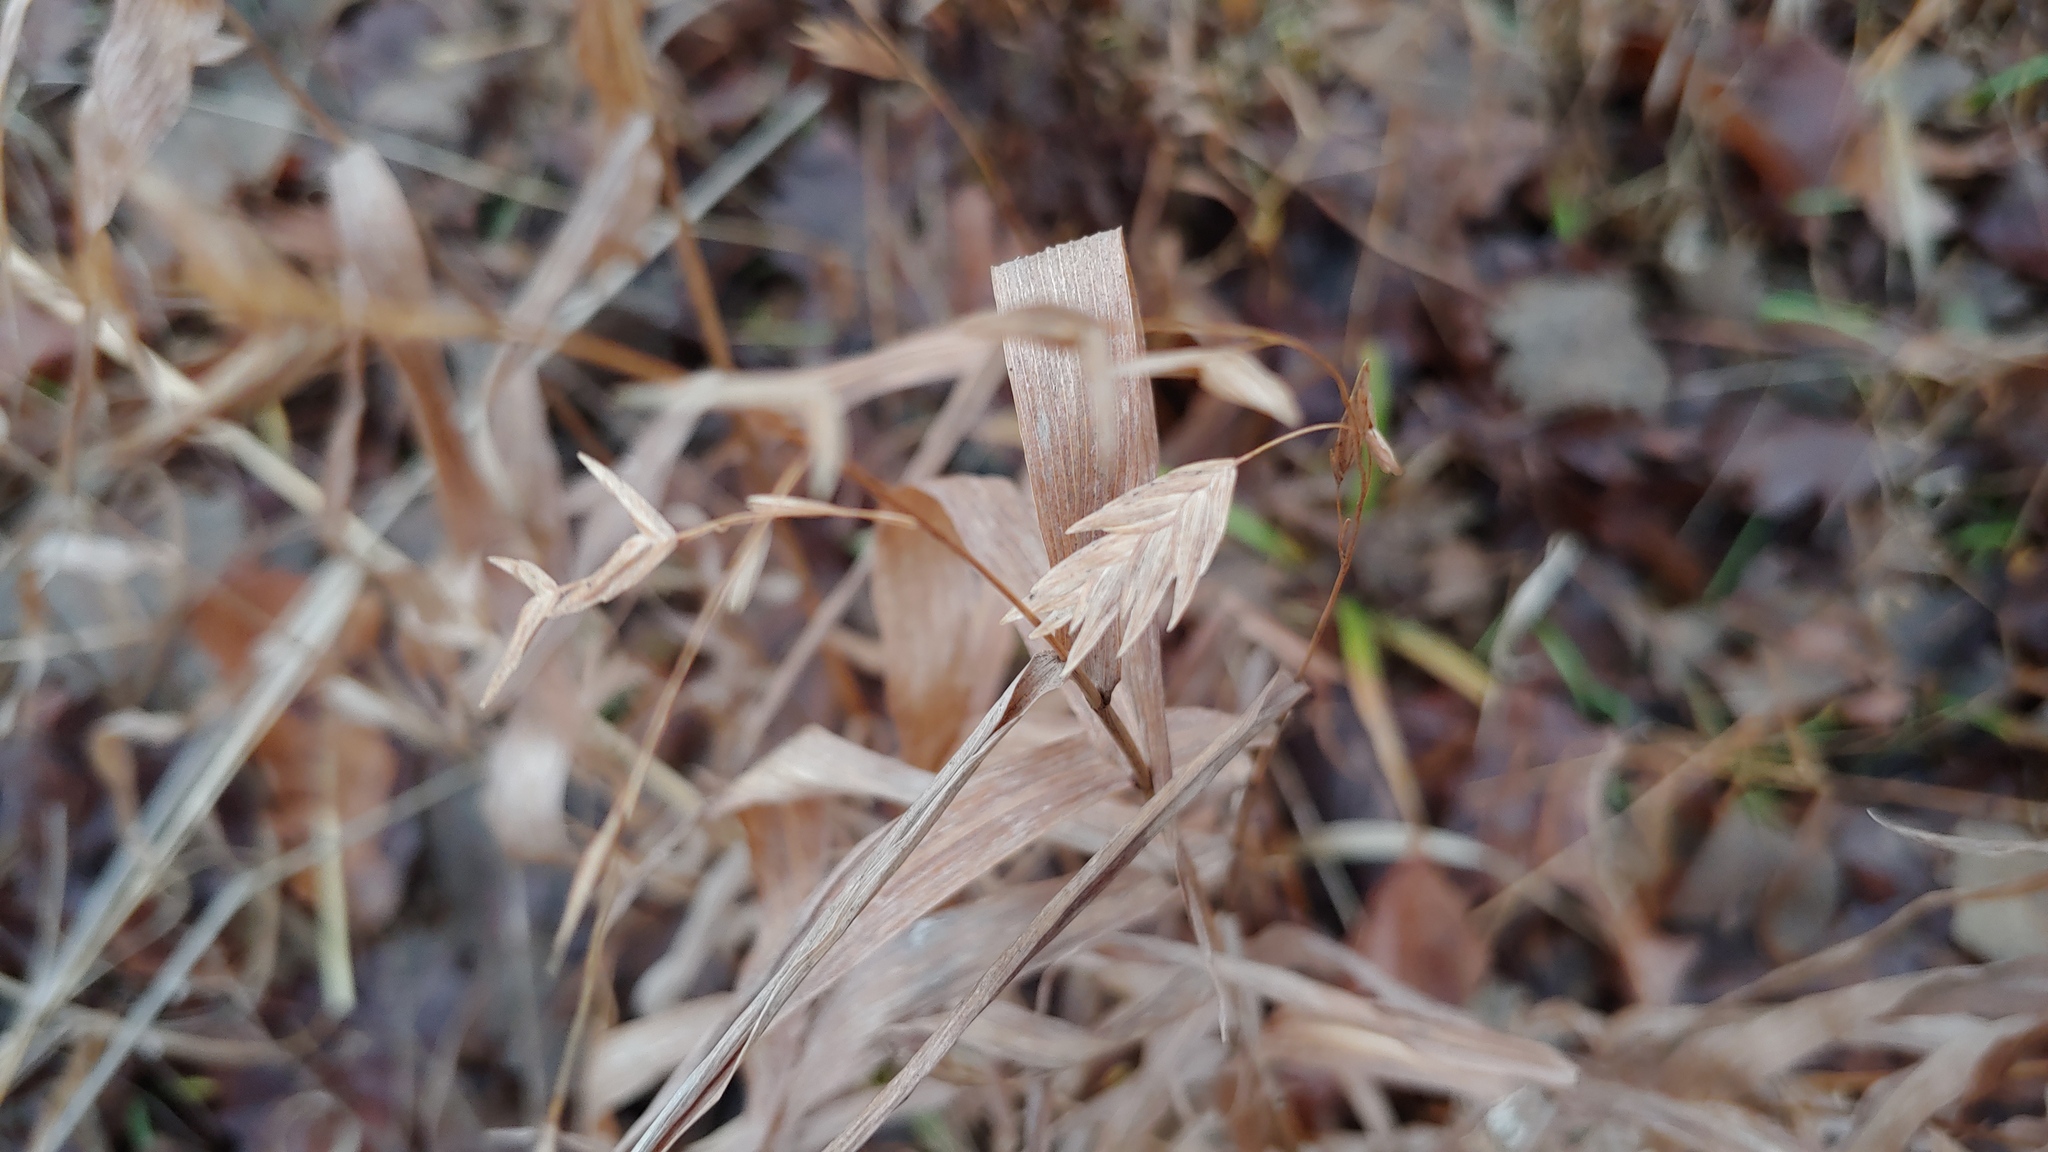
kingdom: Plantae
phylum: Tracheophyta
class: Liliopsida
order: Poales
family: Poaceae
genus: Chasmanthium
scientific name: Chasmanthium latifolium
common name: Broad-leaved chasmanthium
